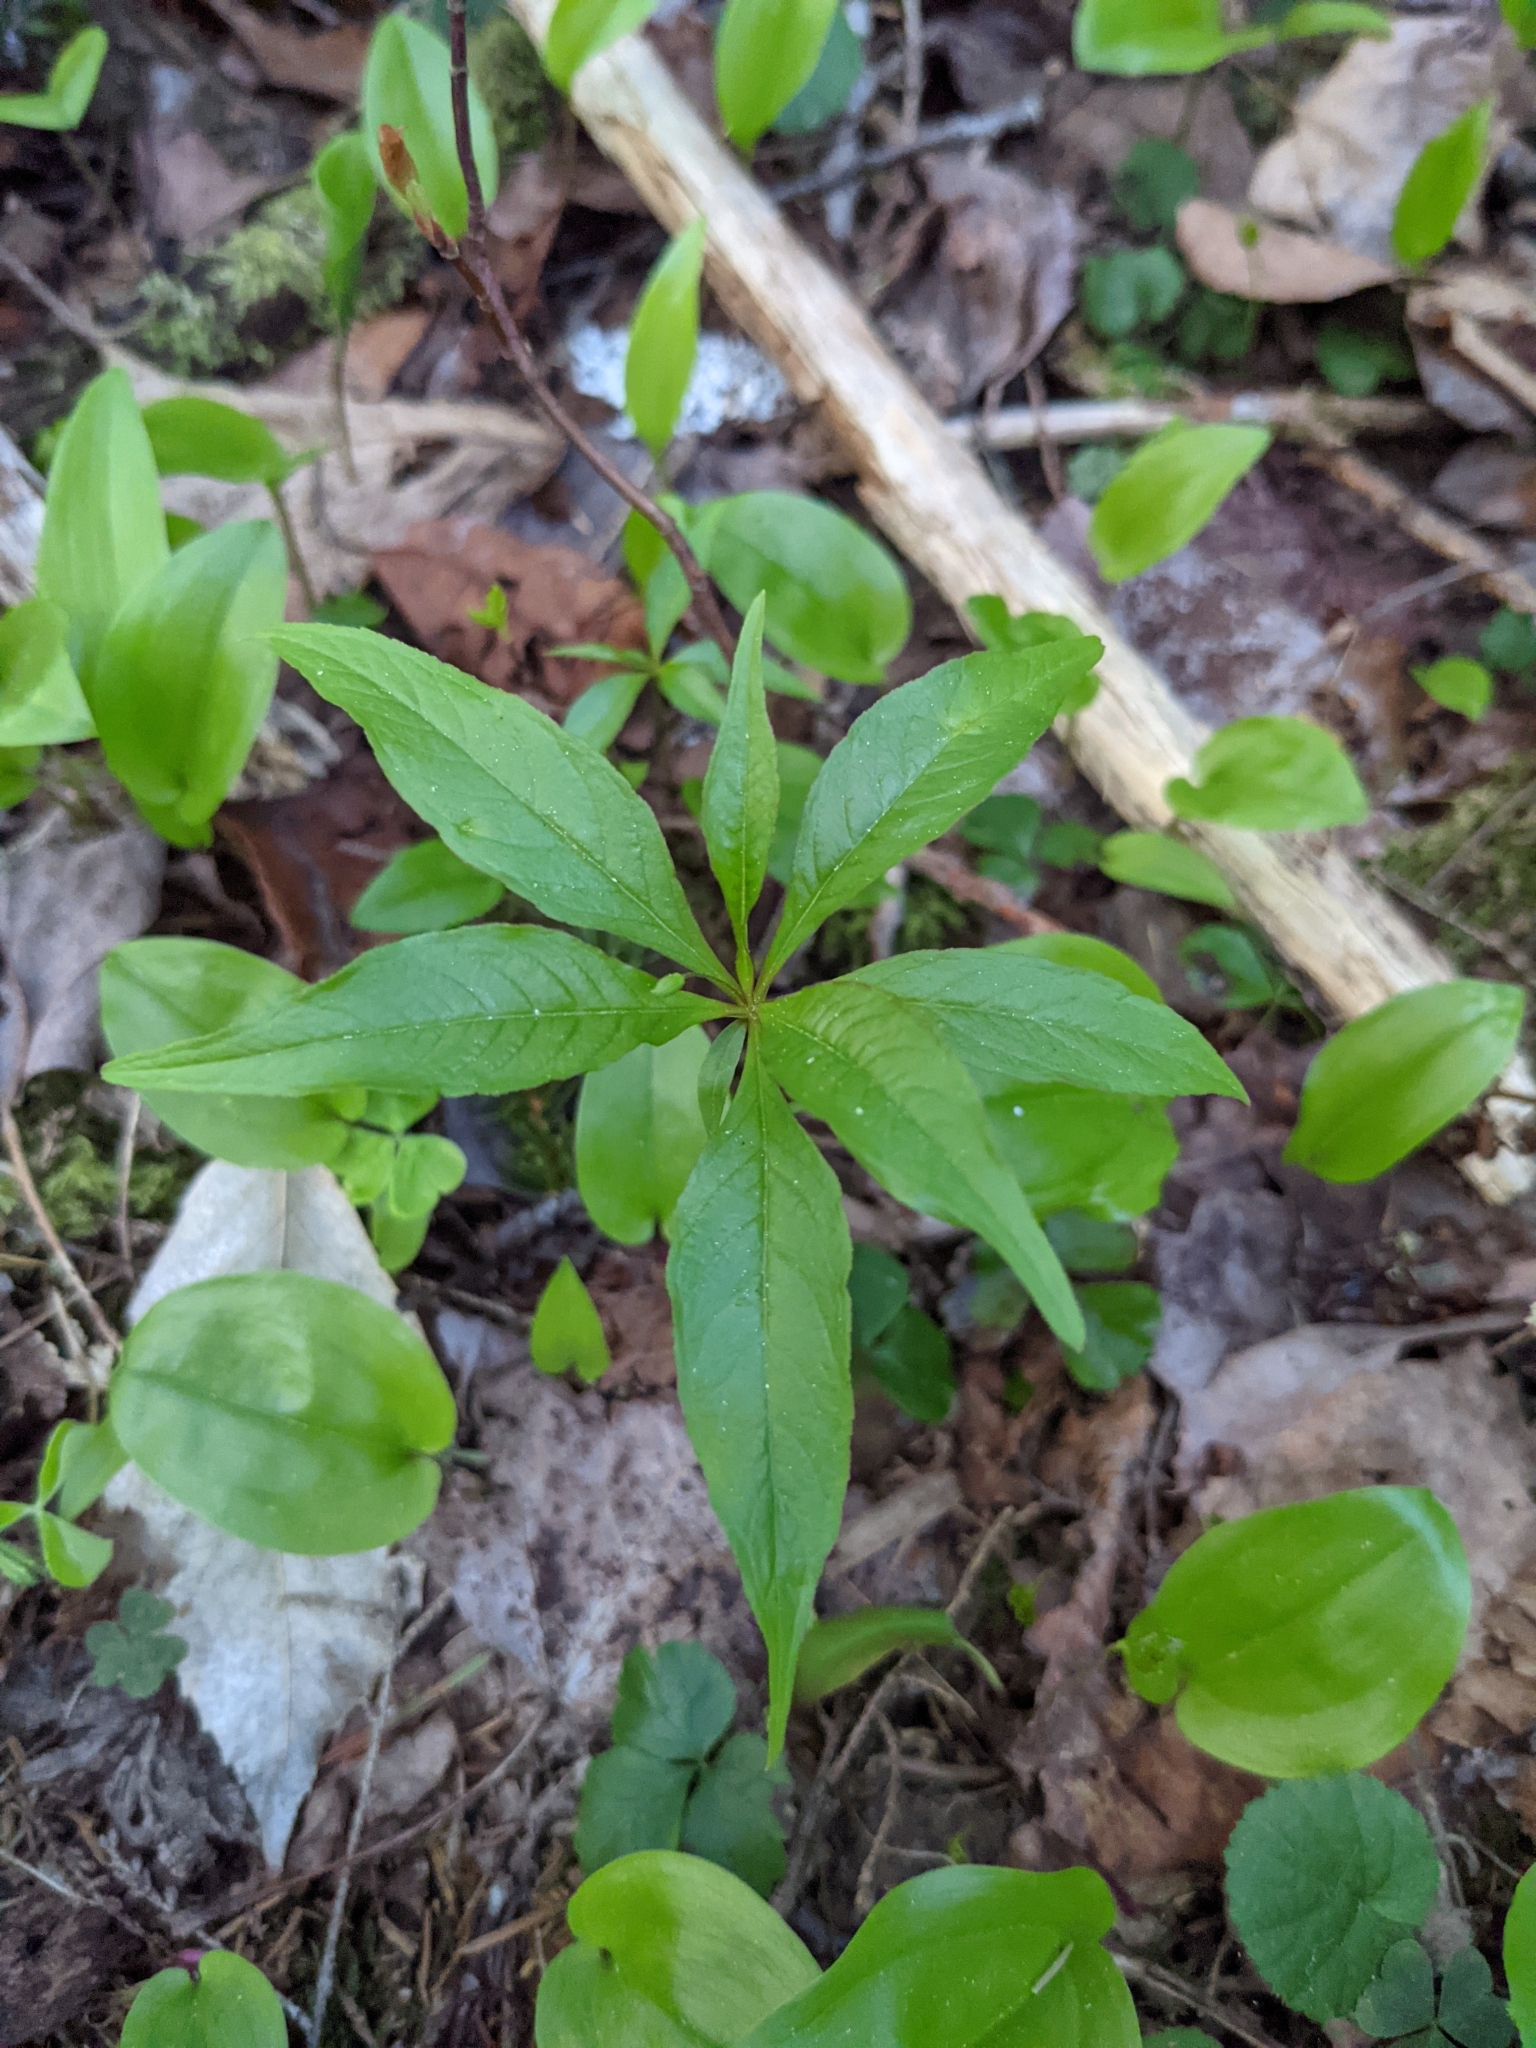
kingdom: Plantae
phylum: Tracheophyta
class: Magnoliopsida
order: Ericales
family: Primulaceae
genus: Lysimachia
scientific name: Lysimachia borealis
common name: American starflower
